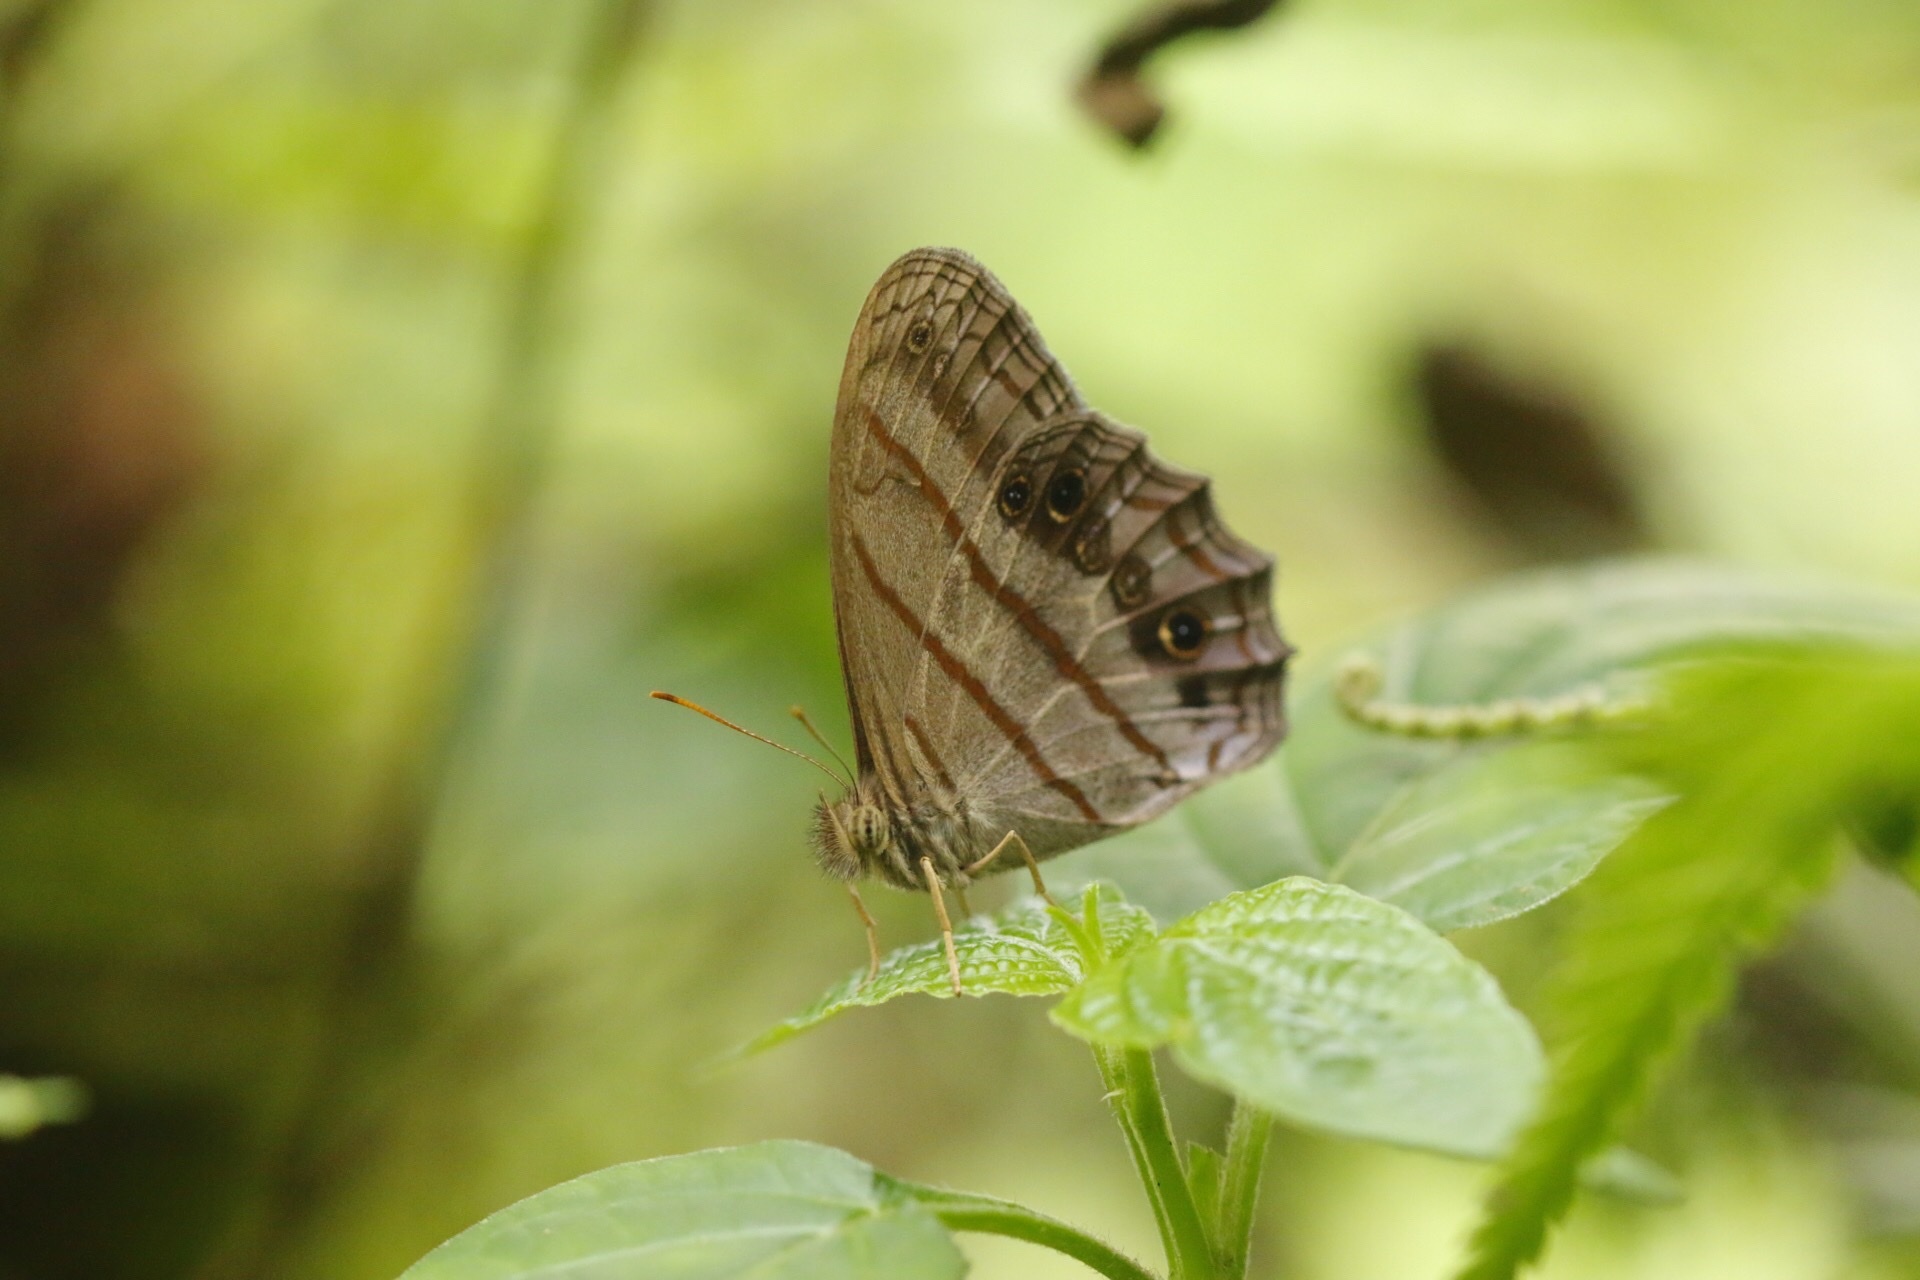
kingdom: Animalia
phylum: Arthropoda
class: Insecta
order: Lepidoptera
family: Nymphalidae
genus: Magneuptychia
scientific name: Magneuptychia libye
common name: Blue-gray satyr
